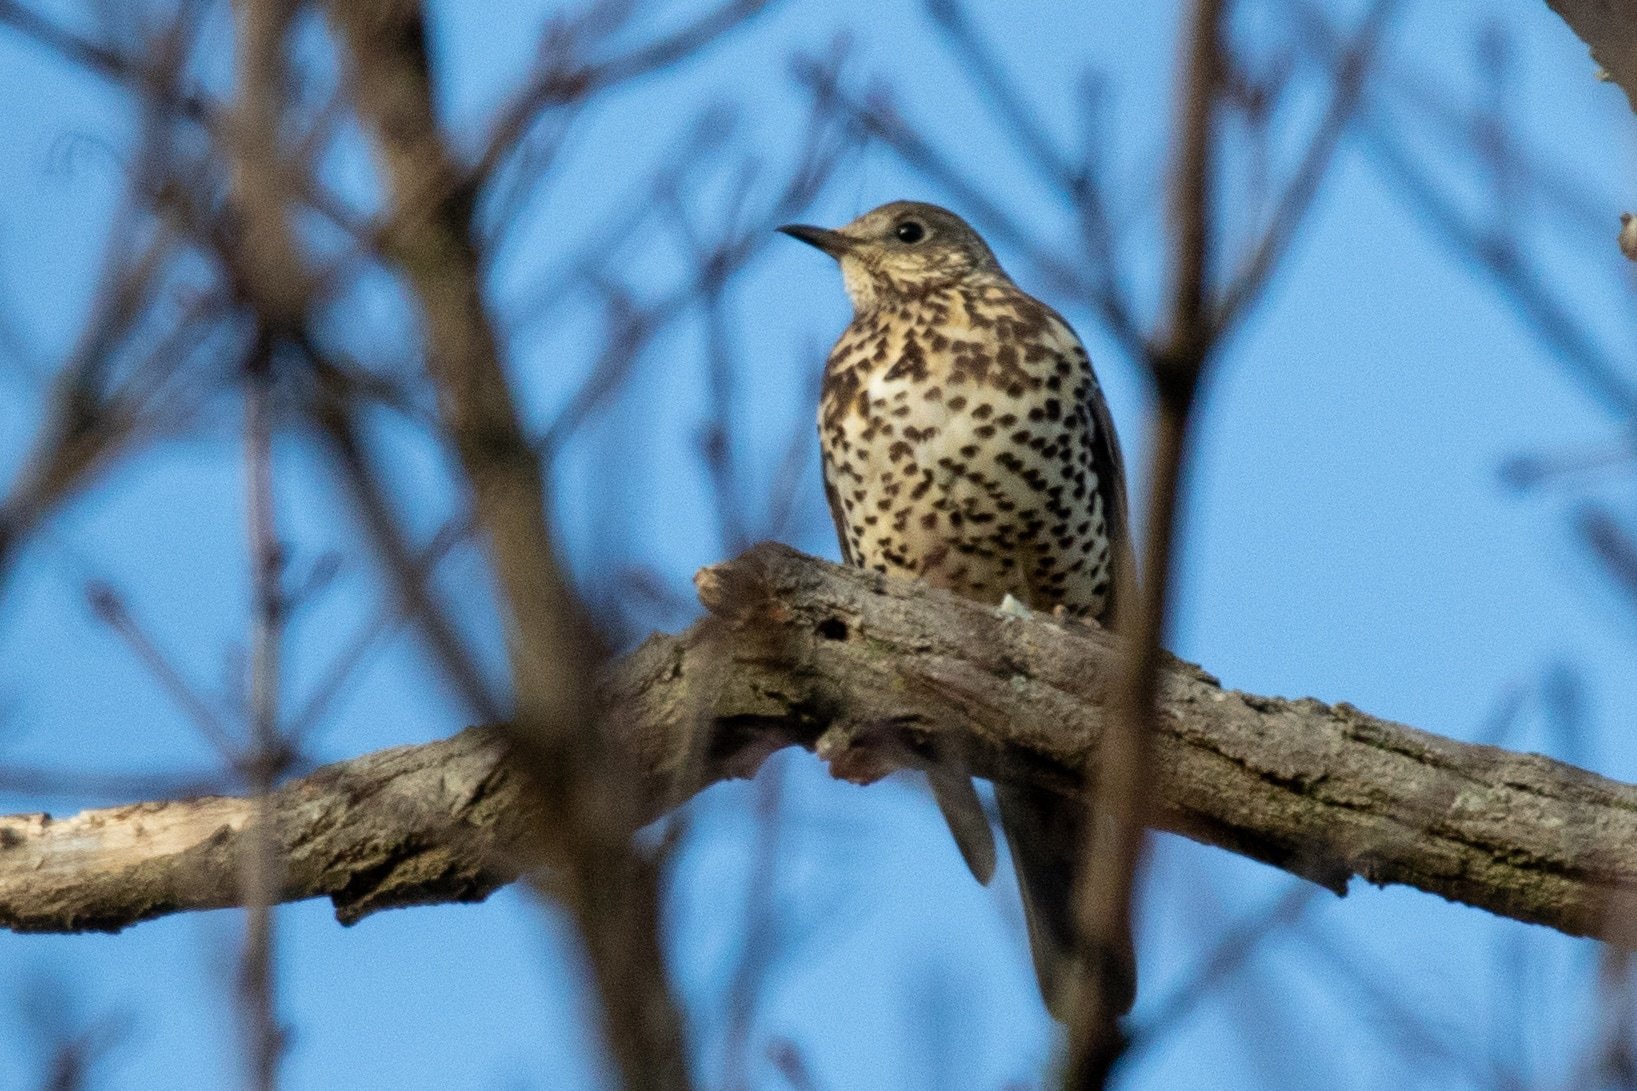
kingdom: Animalia
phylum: Chordata
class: Aves
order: Passeriformes
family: Turdidae
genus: Turdus
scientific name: Turdus viscivorus
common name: Mistle thrush
